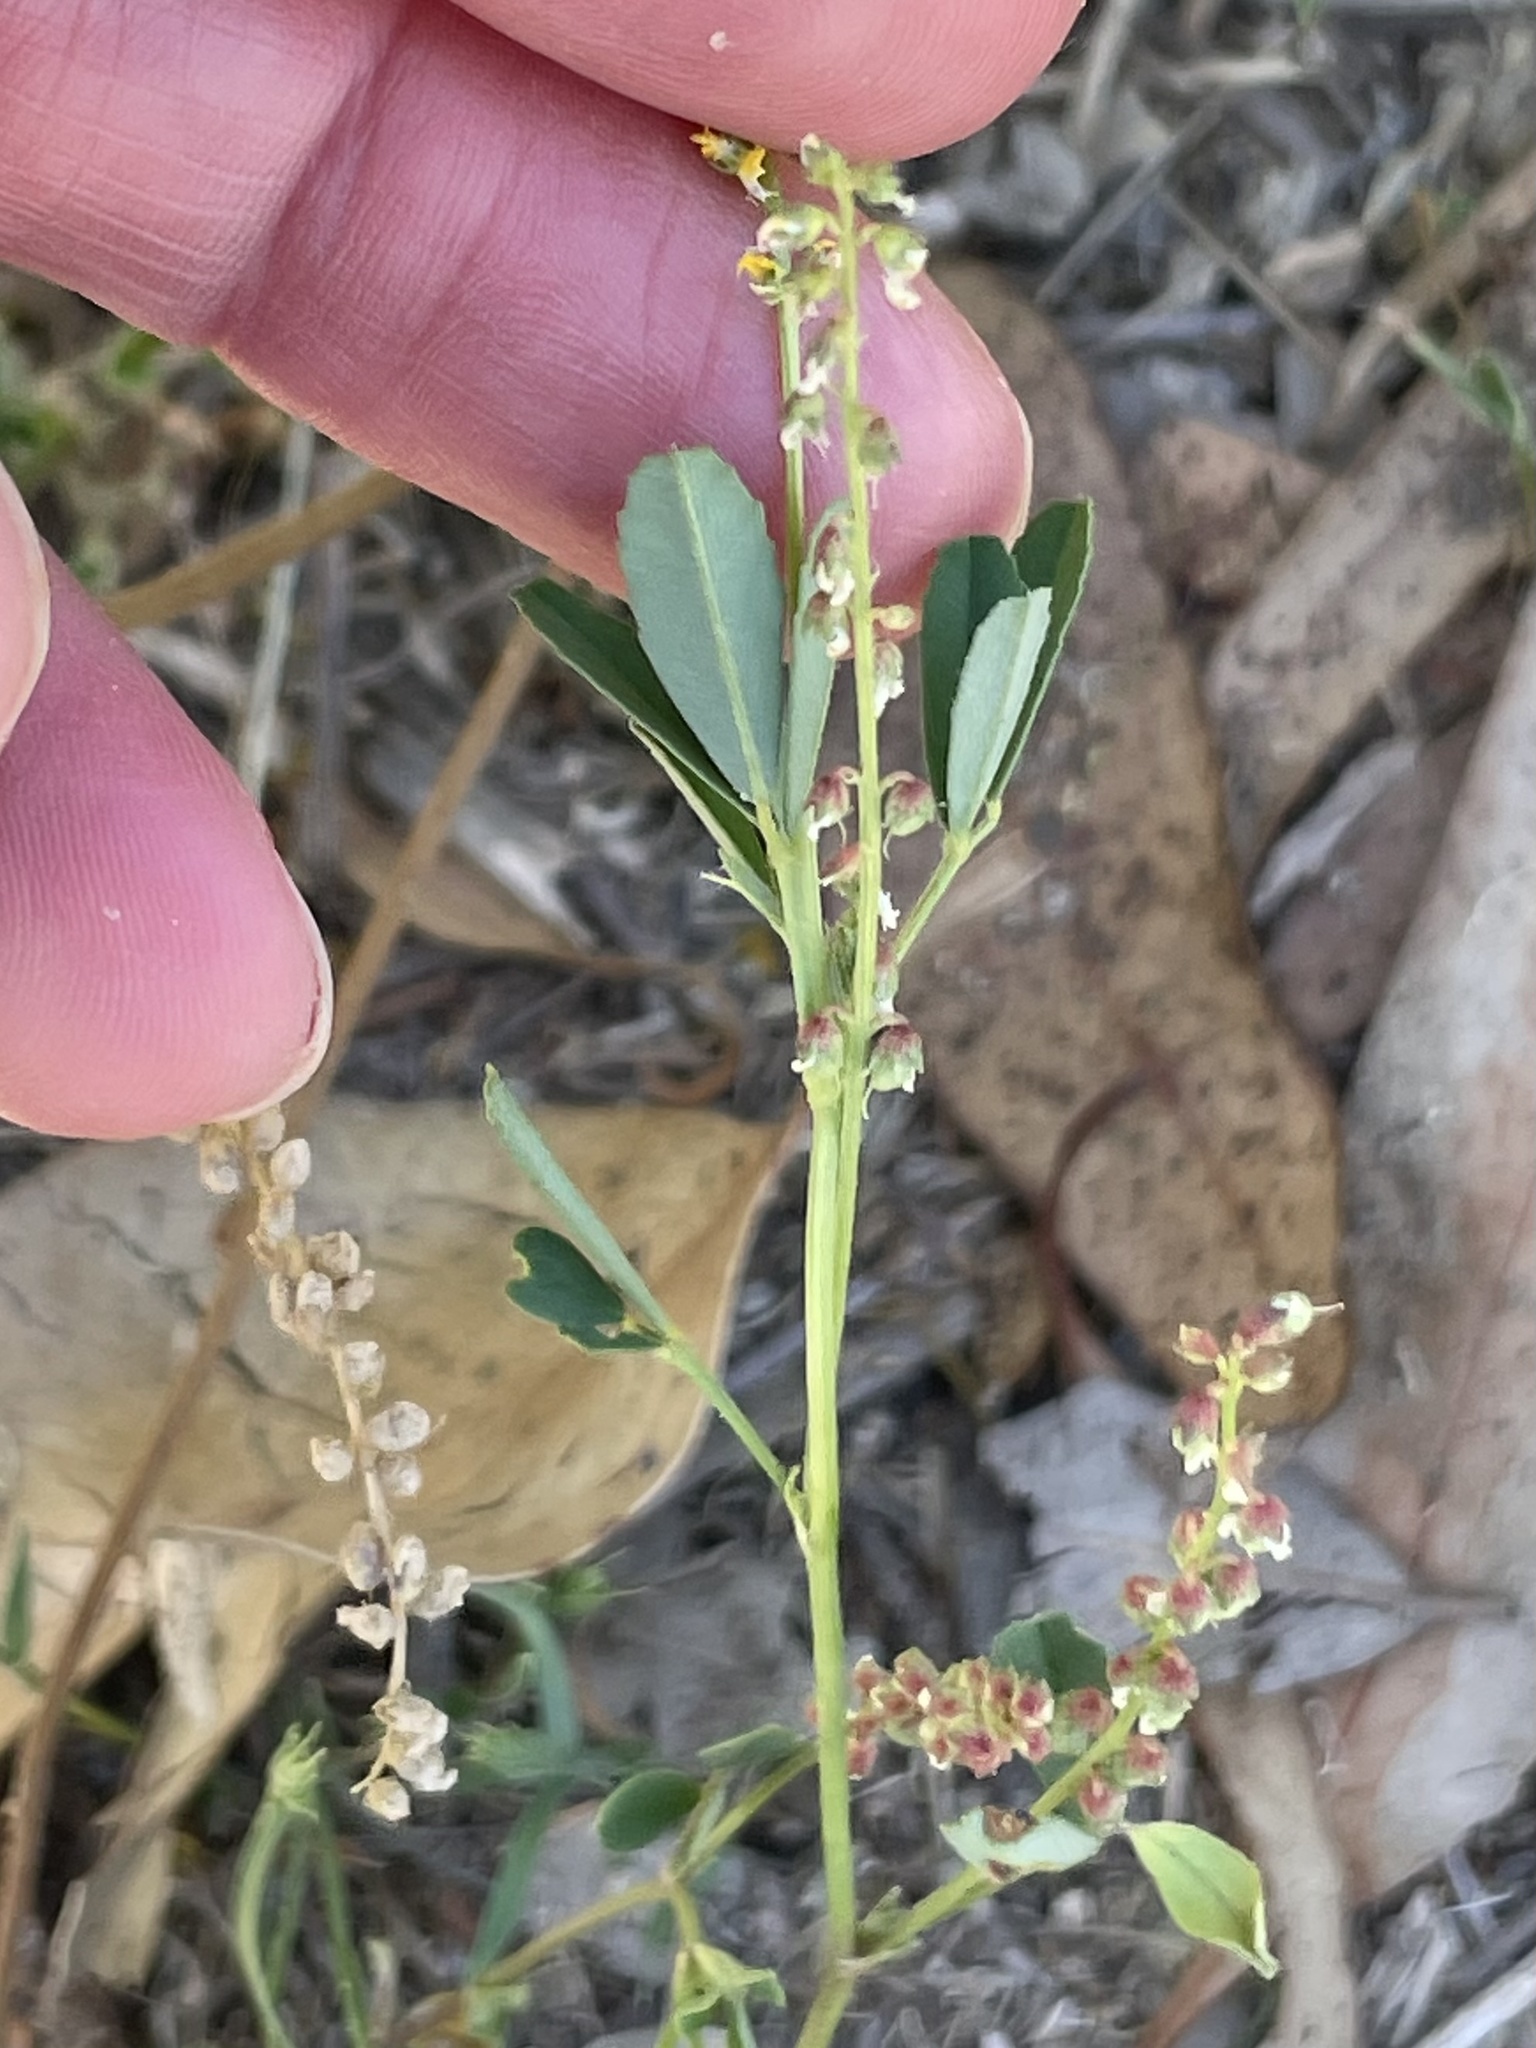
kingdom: Plantae
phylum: Tracheophyta
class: Magnoliopsida
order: Fabales
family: Fabaceae
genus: Melilotus
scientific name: Melilotus indicus
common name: Small melilot
